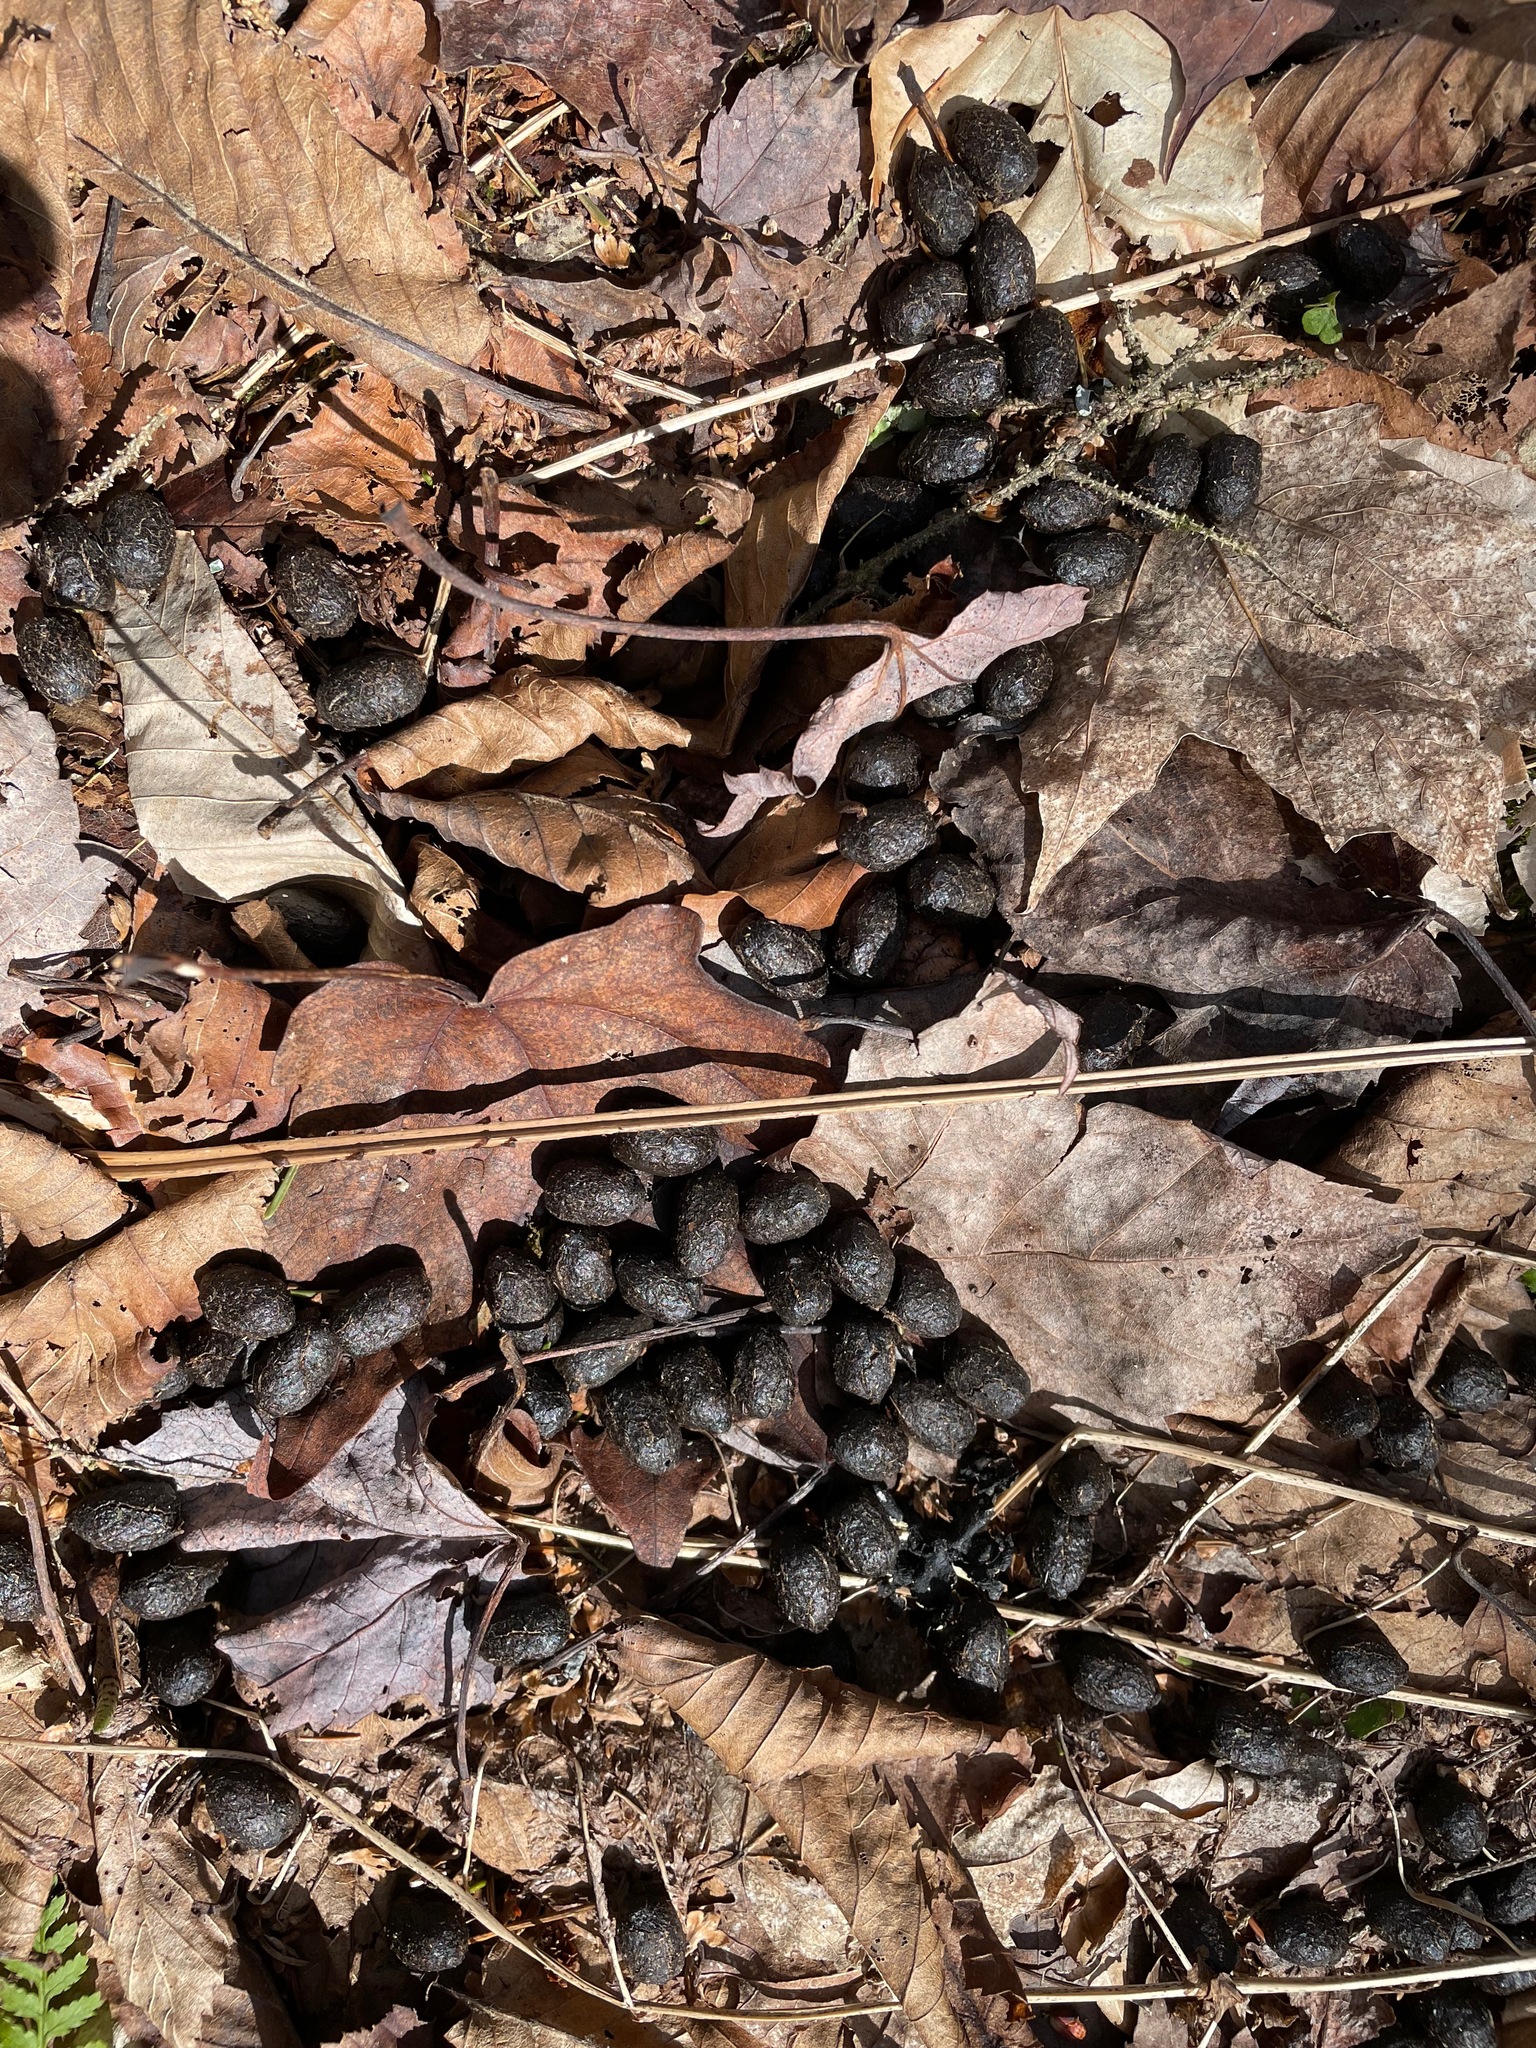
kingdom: Animalia
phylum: Chordata
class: Mammalia
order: Artiodactyla
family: Cervidae
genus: Odocoileus
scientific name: Odocoileus virginianus
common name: White-tailed deer
